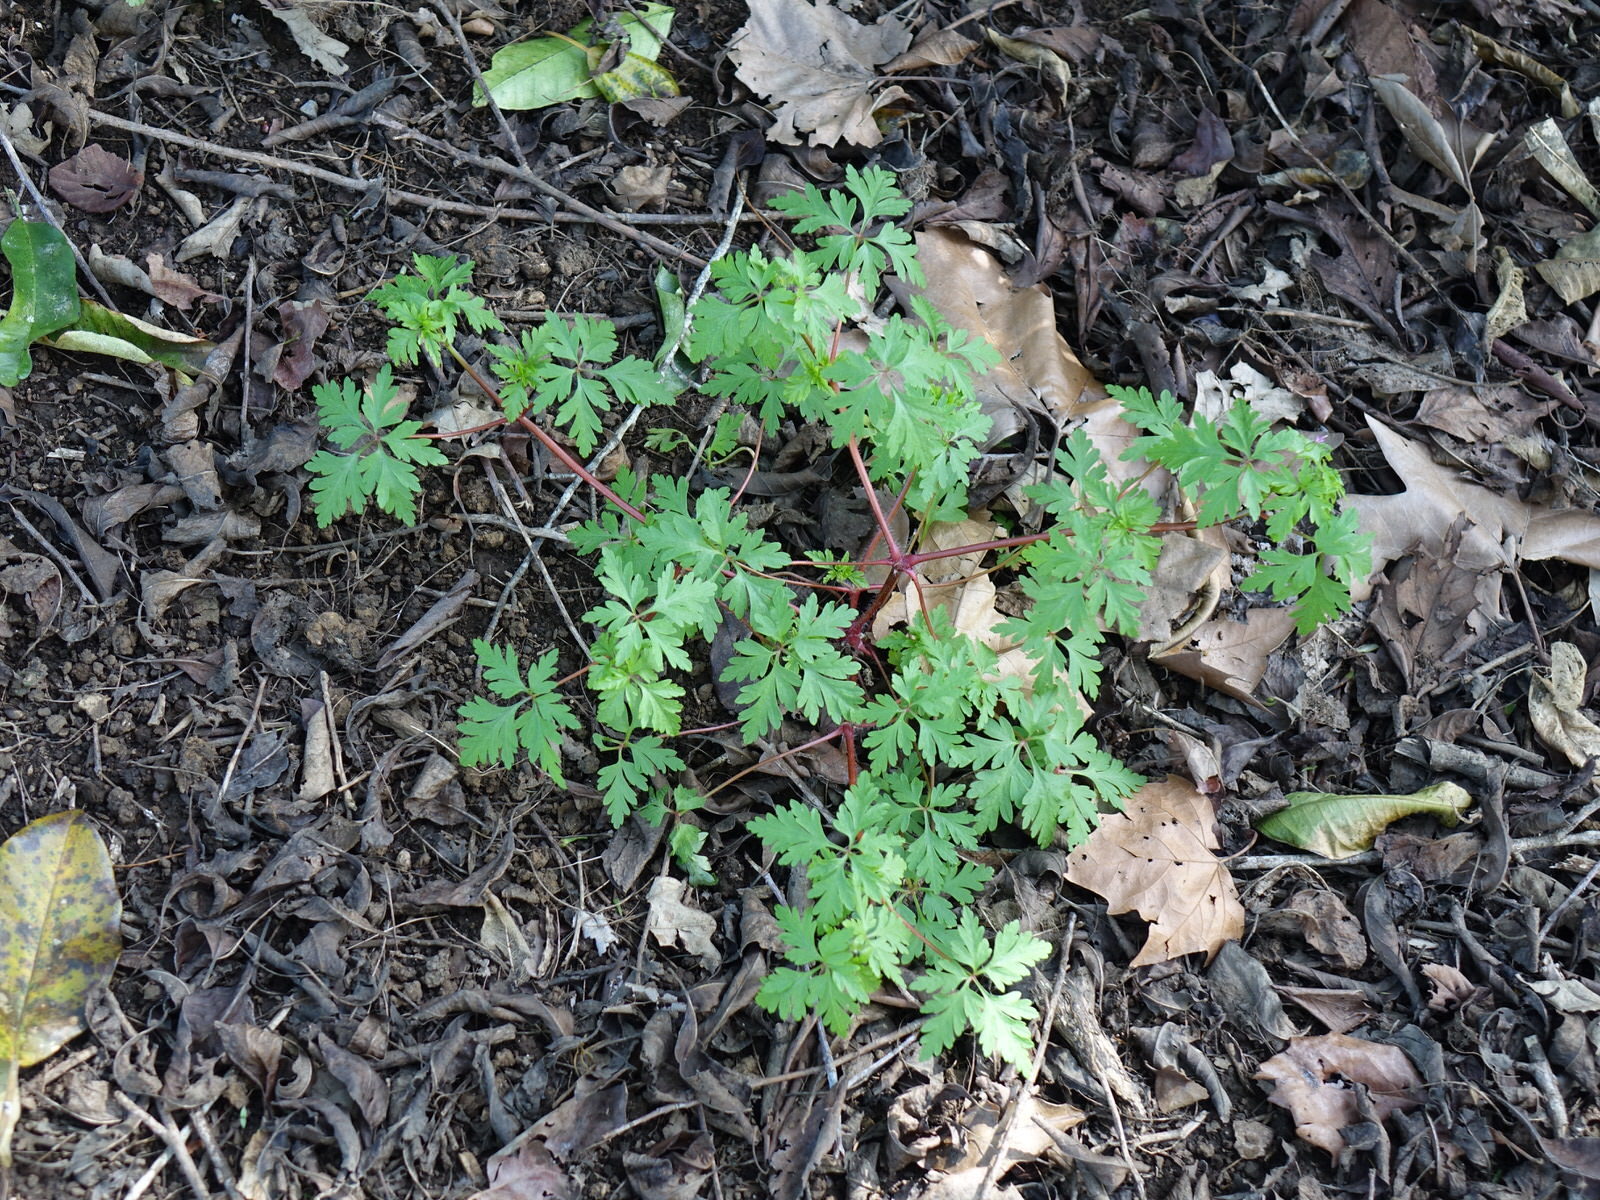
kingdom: Plantae
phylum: Tracheophyta
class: Magnoliopsida
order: Geraniales
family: Geraniaceae
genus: Geranium
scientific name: Geranium robertianum
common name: Herb-robert
